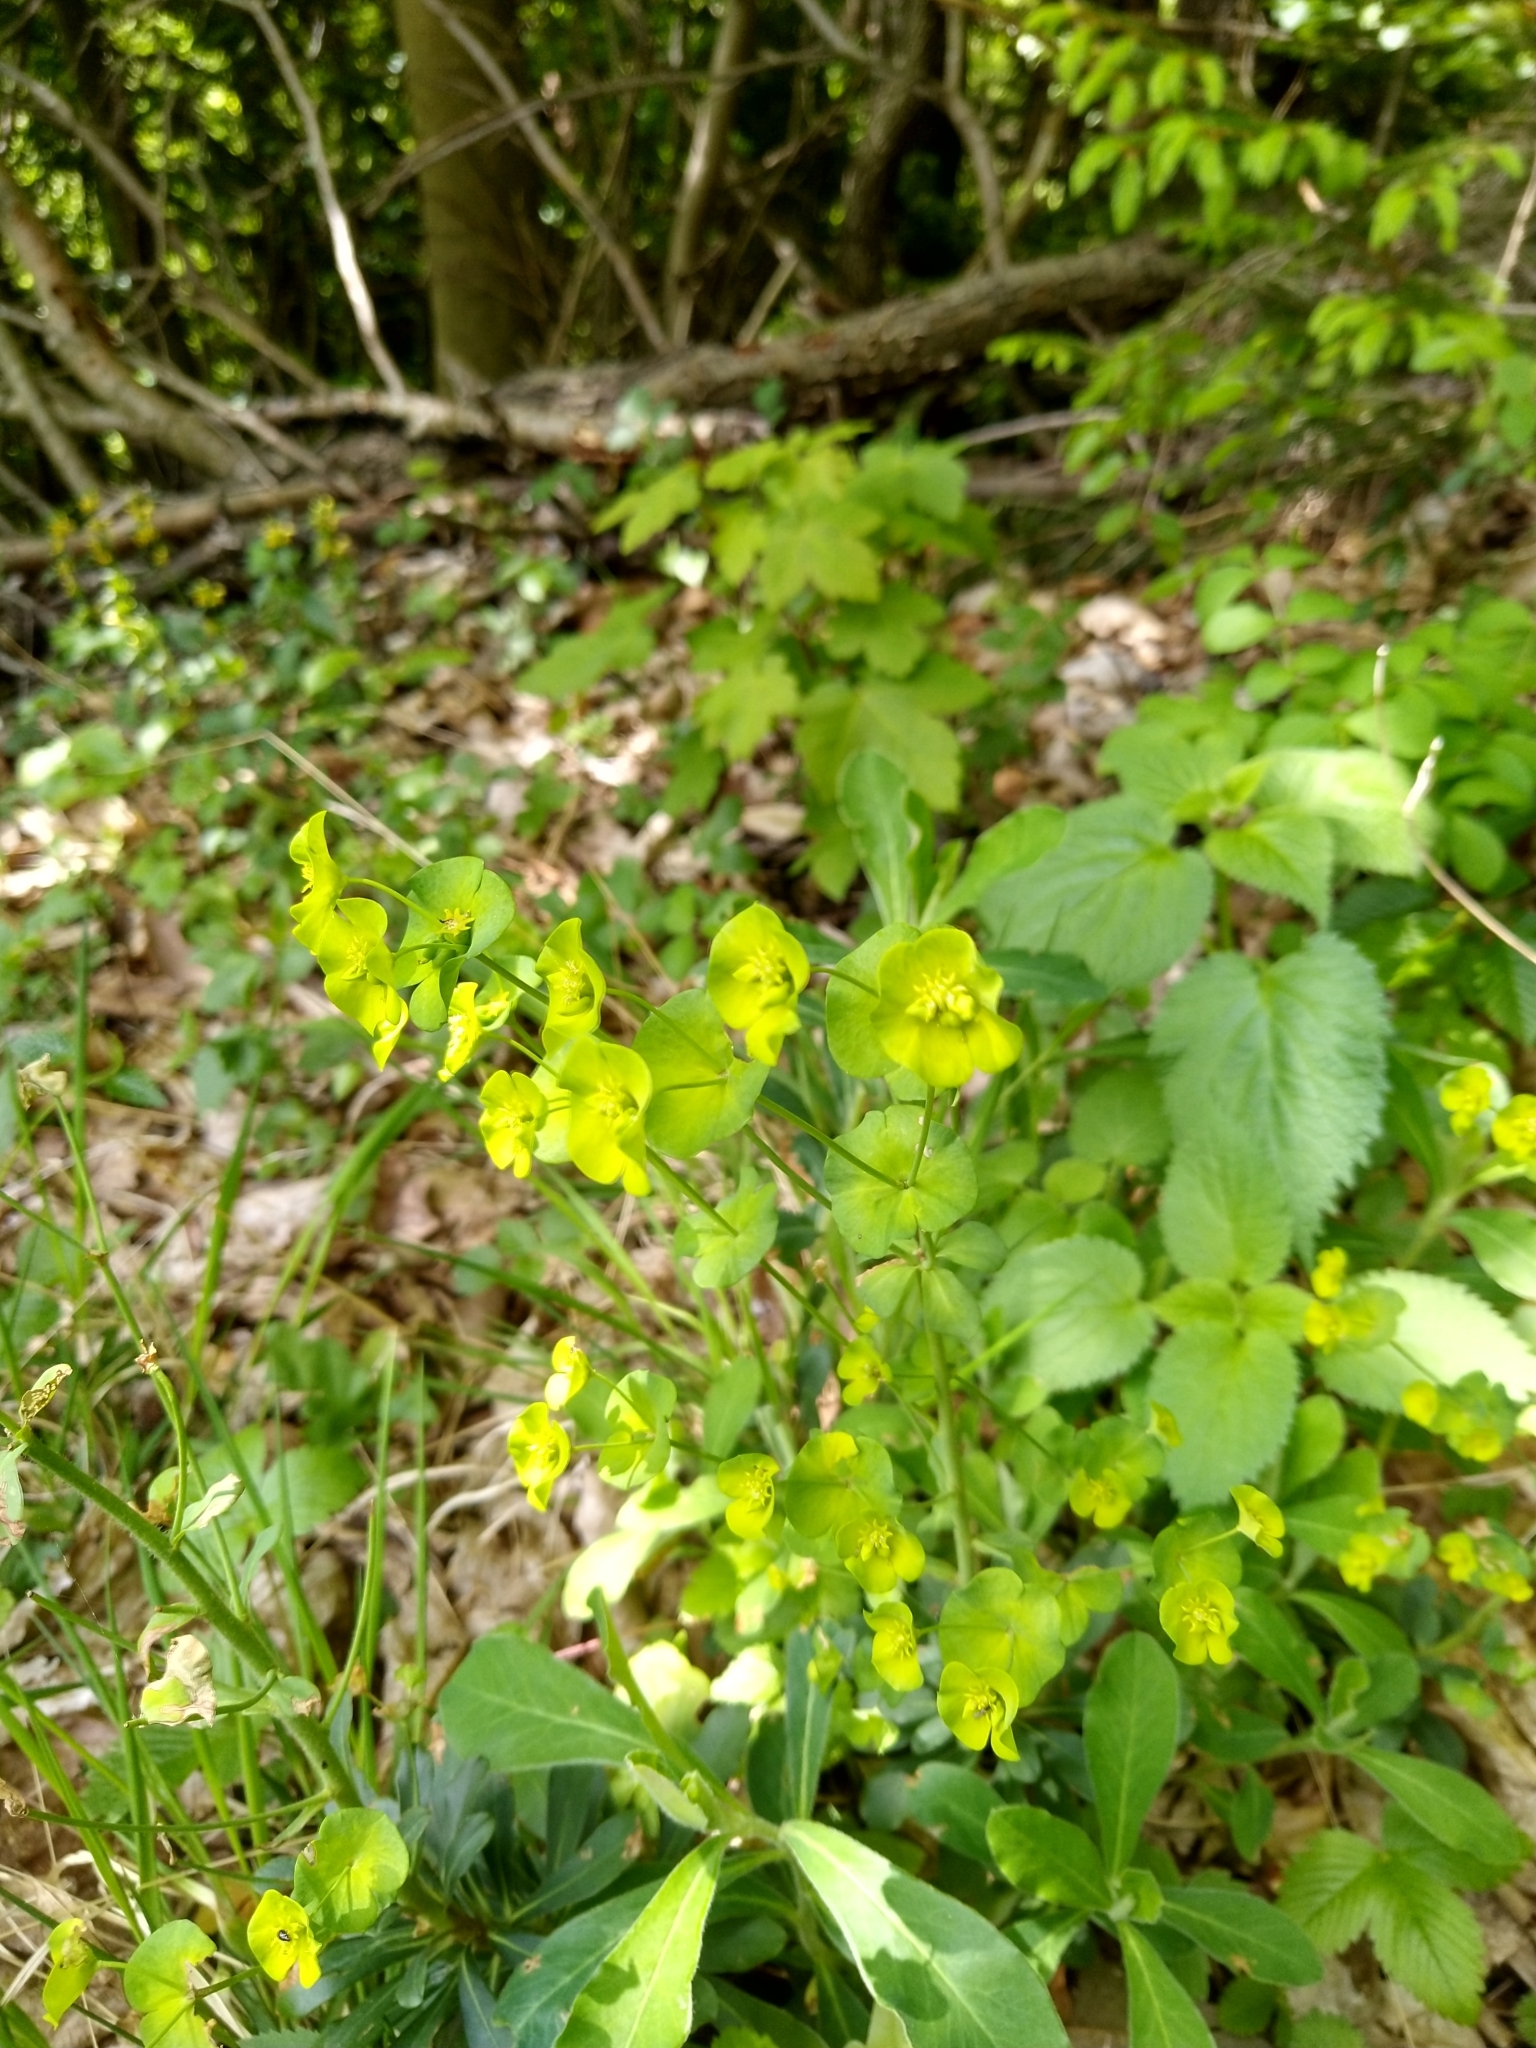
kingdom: Plantae
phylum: Tracheophyta
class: Magnoliopsida
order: Malpighiales
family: Euphorbiaceae
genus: Euphorbia
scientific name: Euphorbia amygdaloides
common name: Wood spurge
